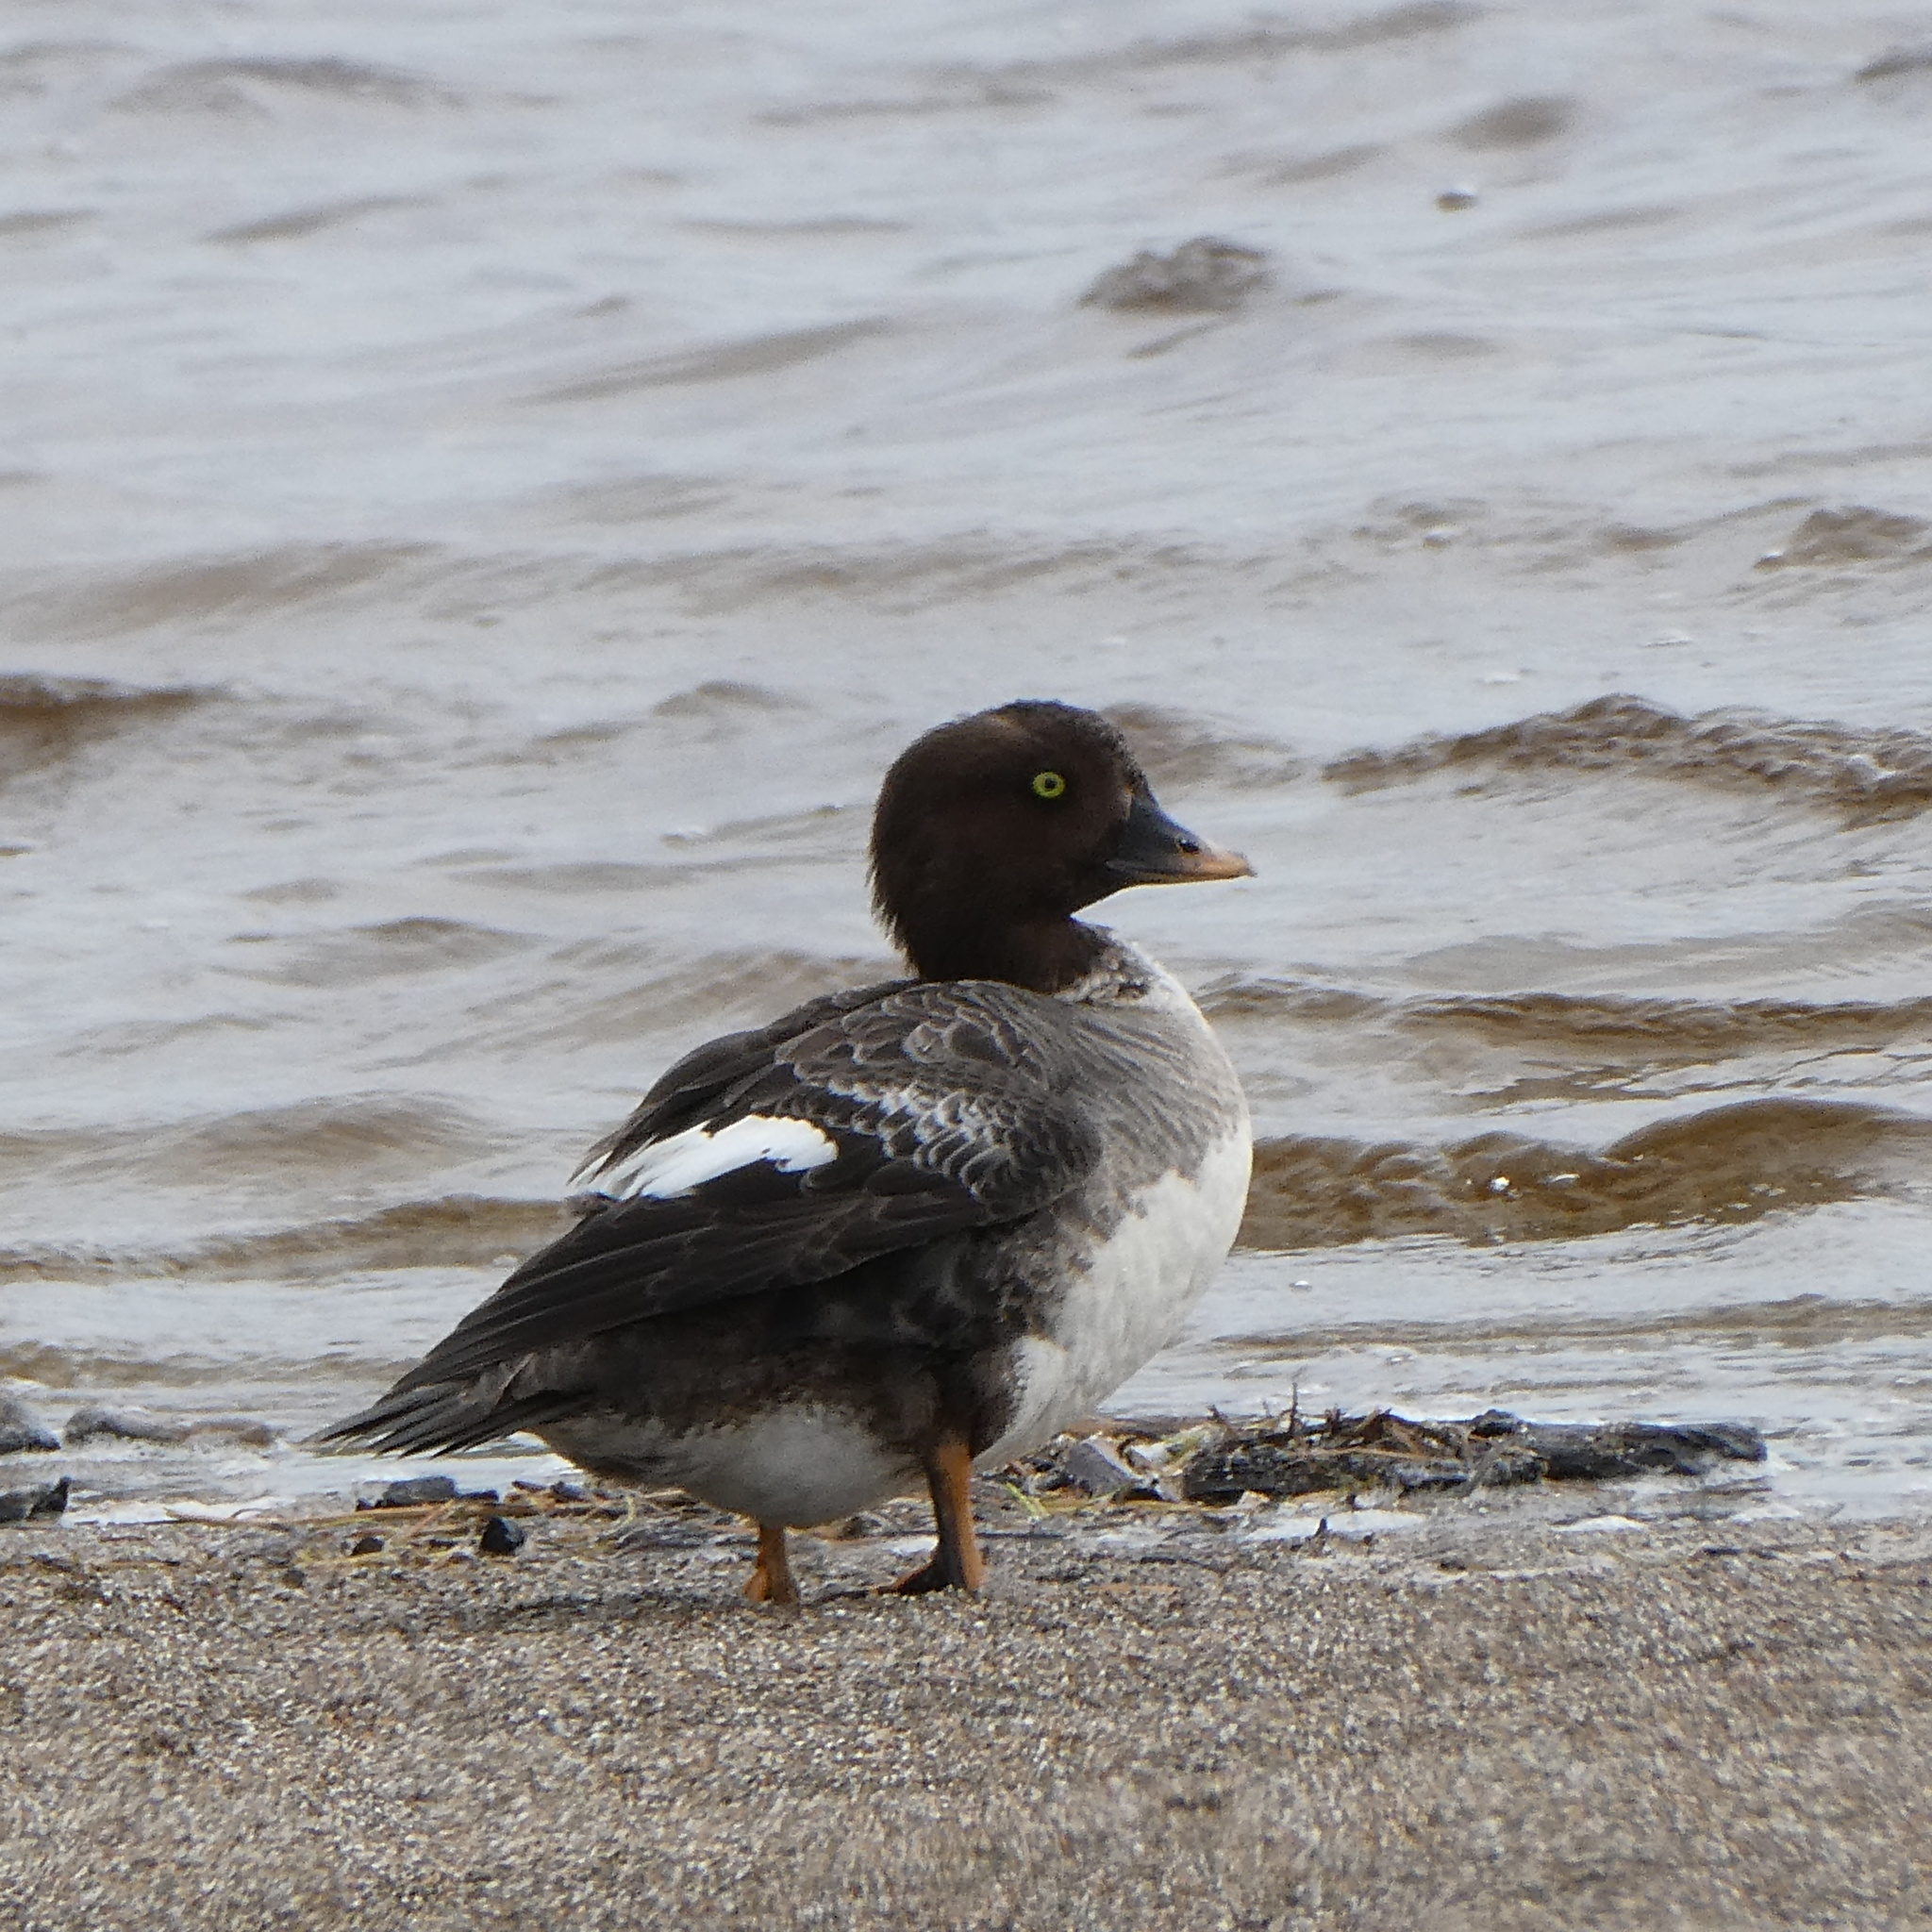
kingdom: Animalia
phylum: Chordata
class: Aves
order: Anseriformes
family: Anatidae
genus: Bucephala
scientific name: Bucephala clangula
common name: Common goldeneye
